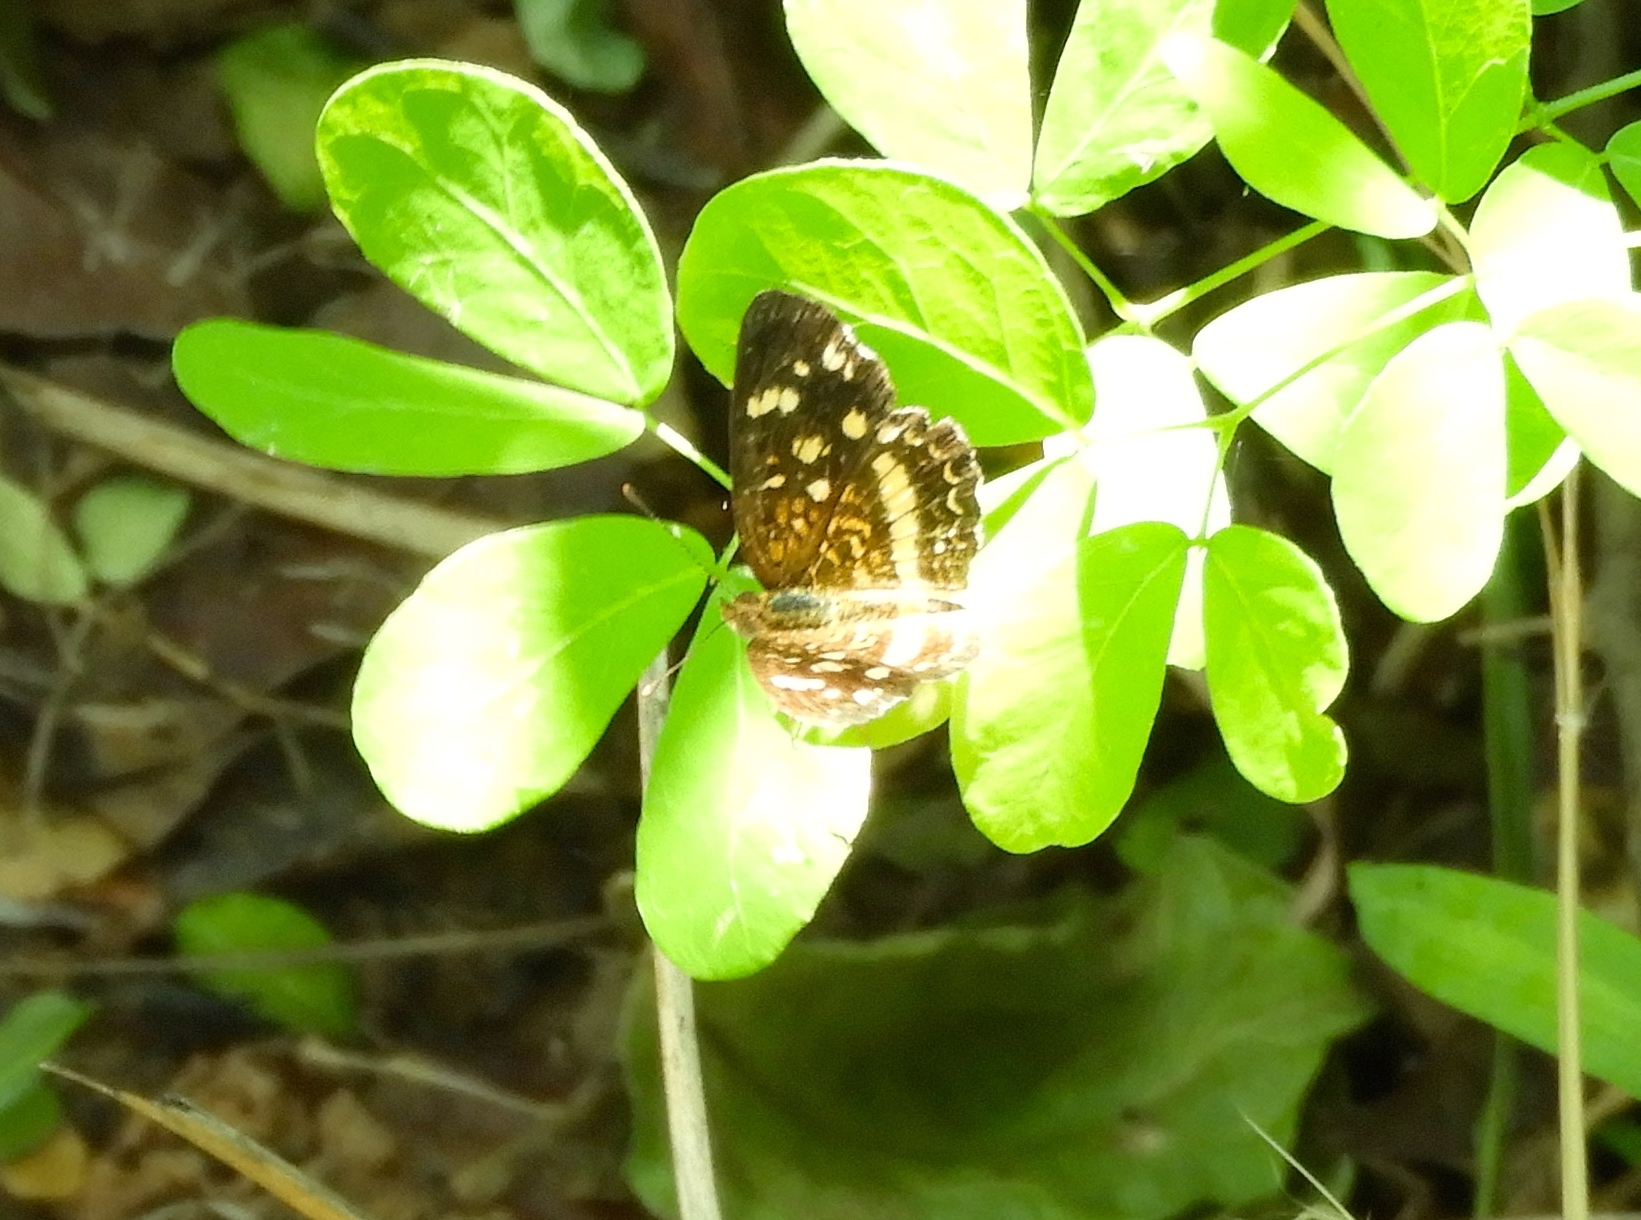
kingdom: Animalia
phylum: Arthropoda
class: Insecta
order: Lepidoptera
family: Nymphalidae
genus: Anthanassa
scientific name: Anthanassa tulcis
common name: Pale-banded crescent
